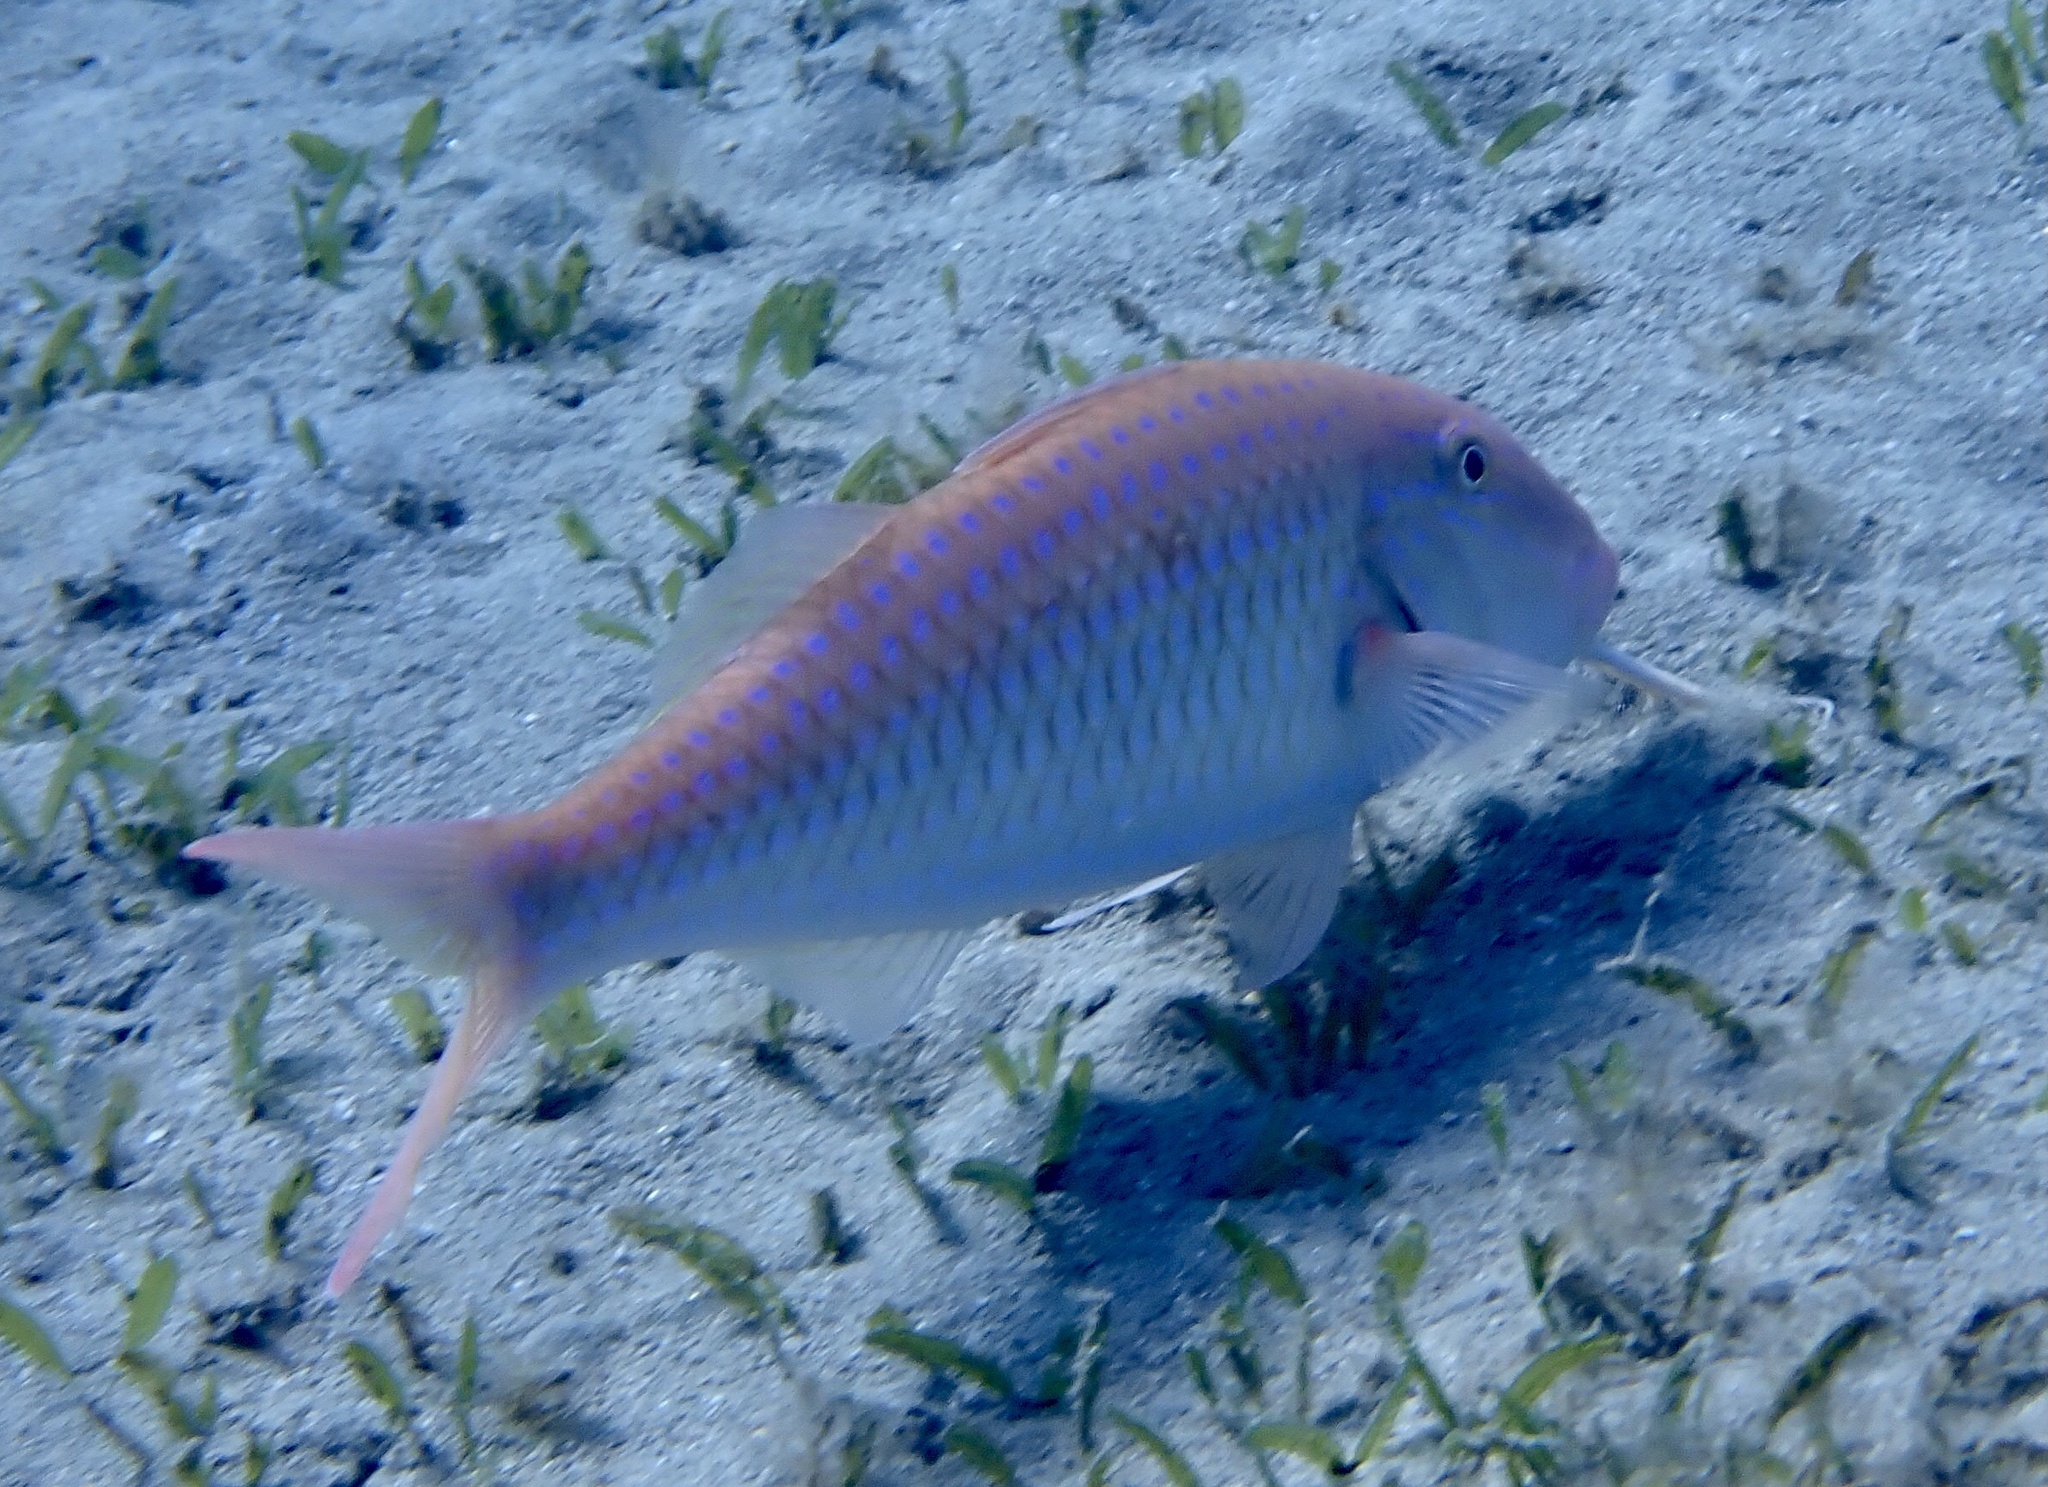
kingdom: Animalia
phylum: Chordata
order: Perciformes
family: Mullidae
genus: Parupeneus
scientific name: Parupeneus heptacanthus
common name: Cinnabar goatfish
